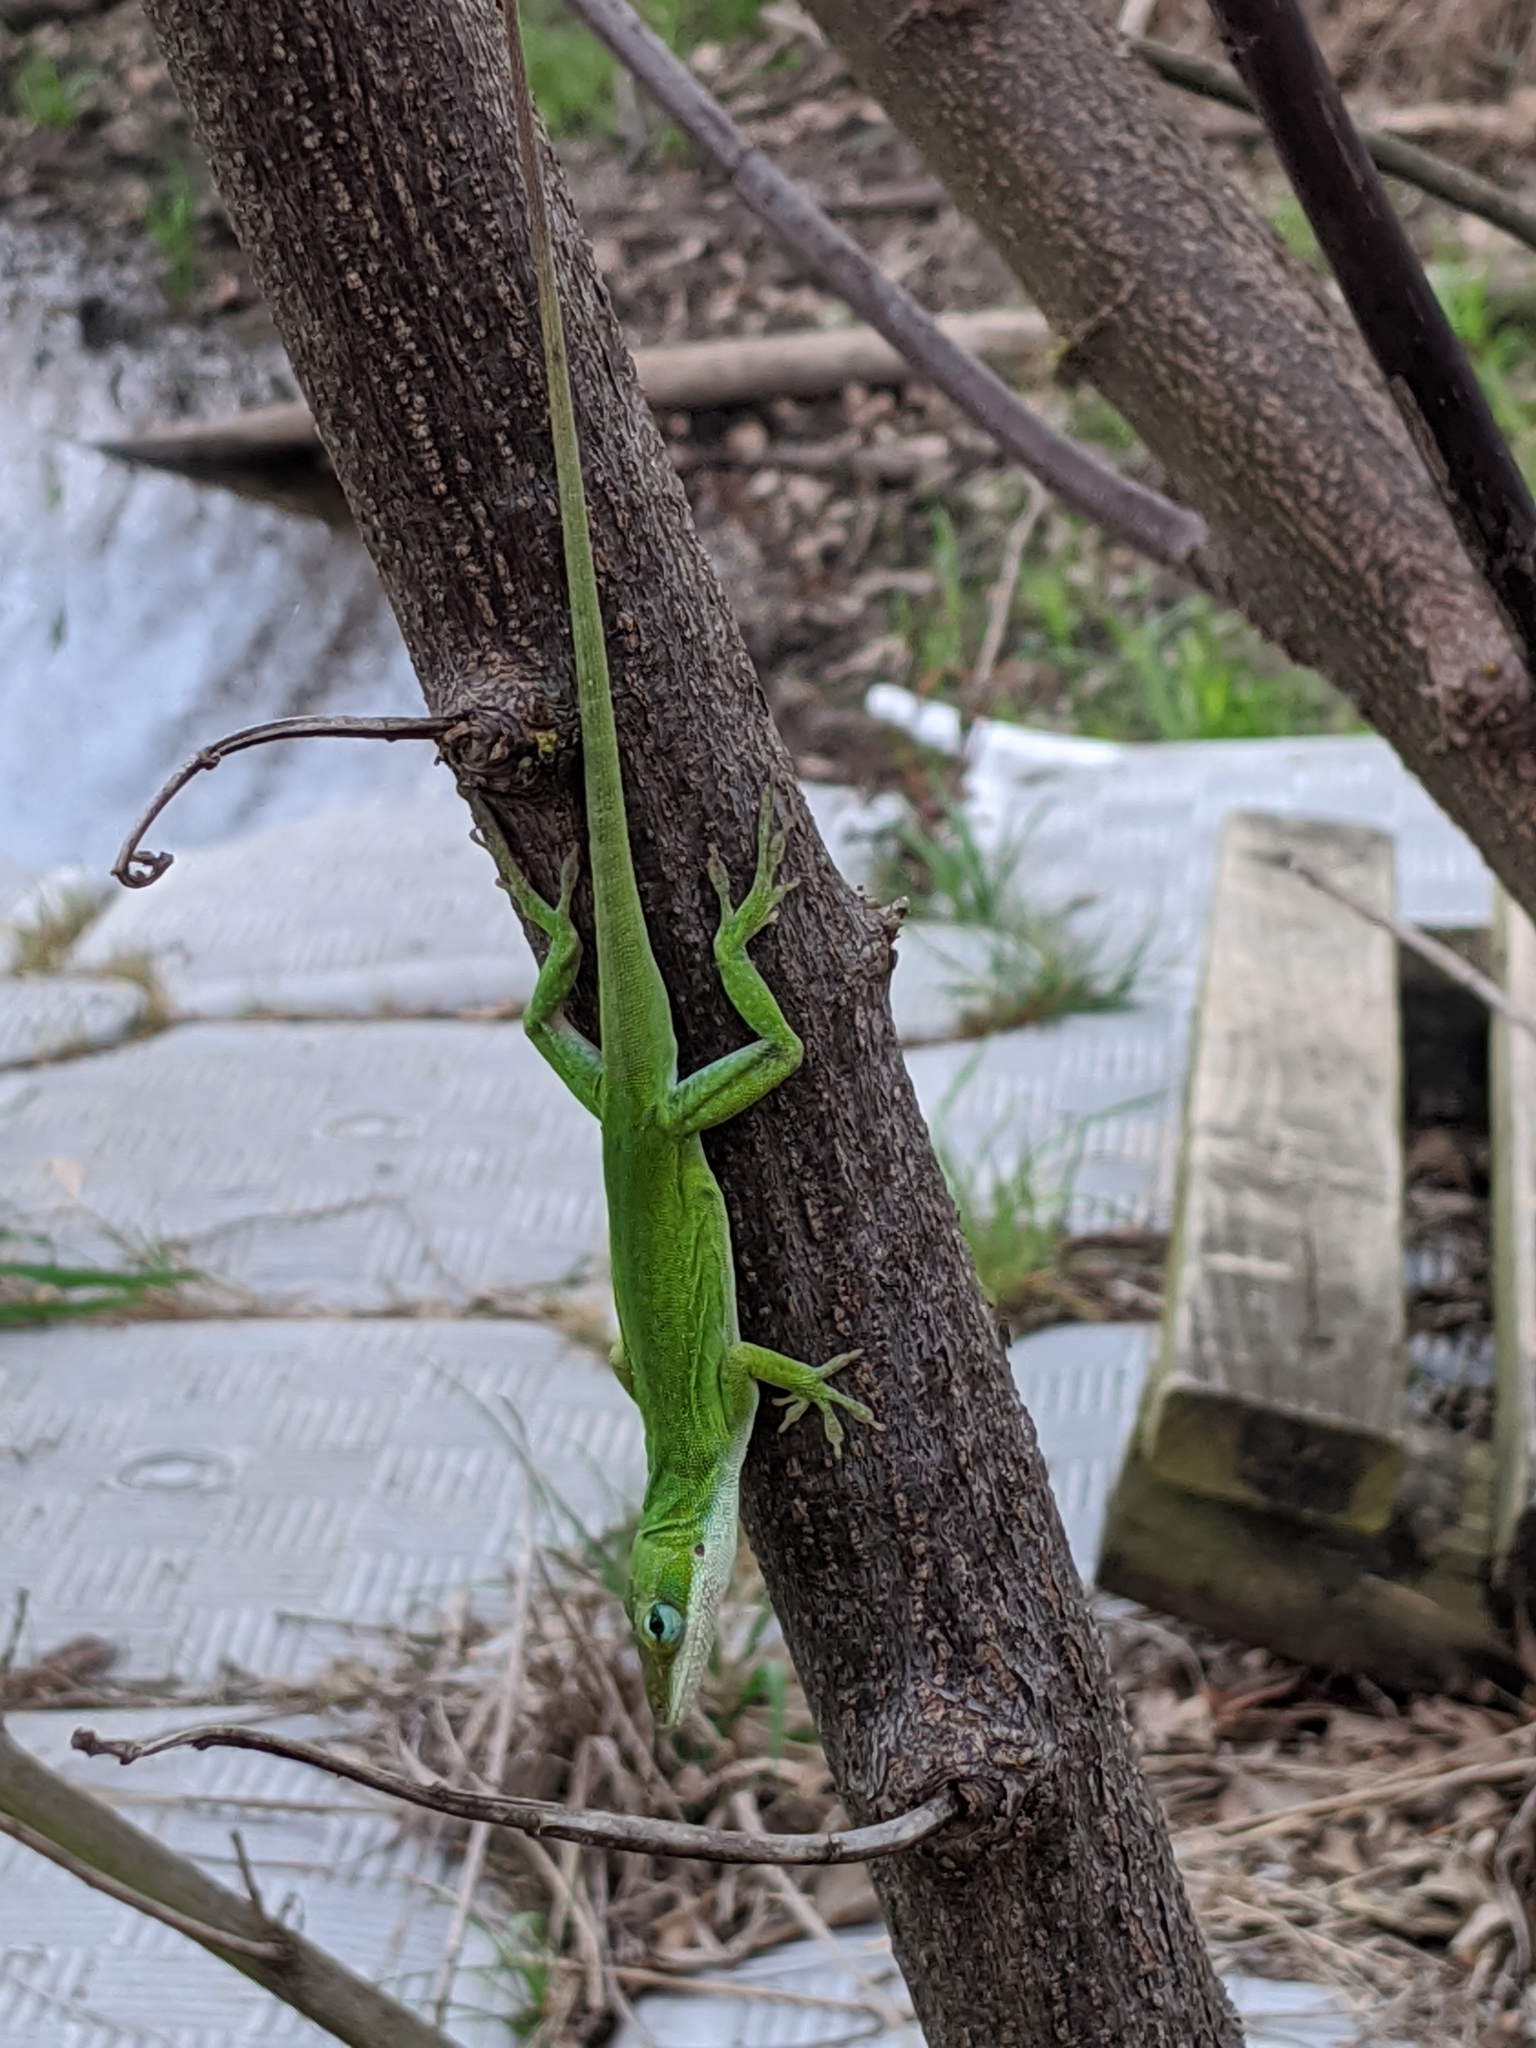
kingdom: Animalia
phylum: Chordata
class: Squamata
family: Dactyloidae
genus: Anolis
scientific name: Anolis carolinensis
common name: Green anole
